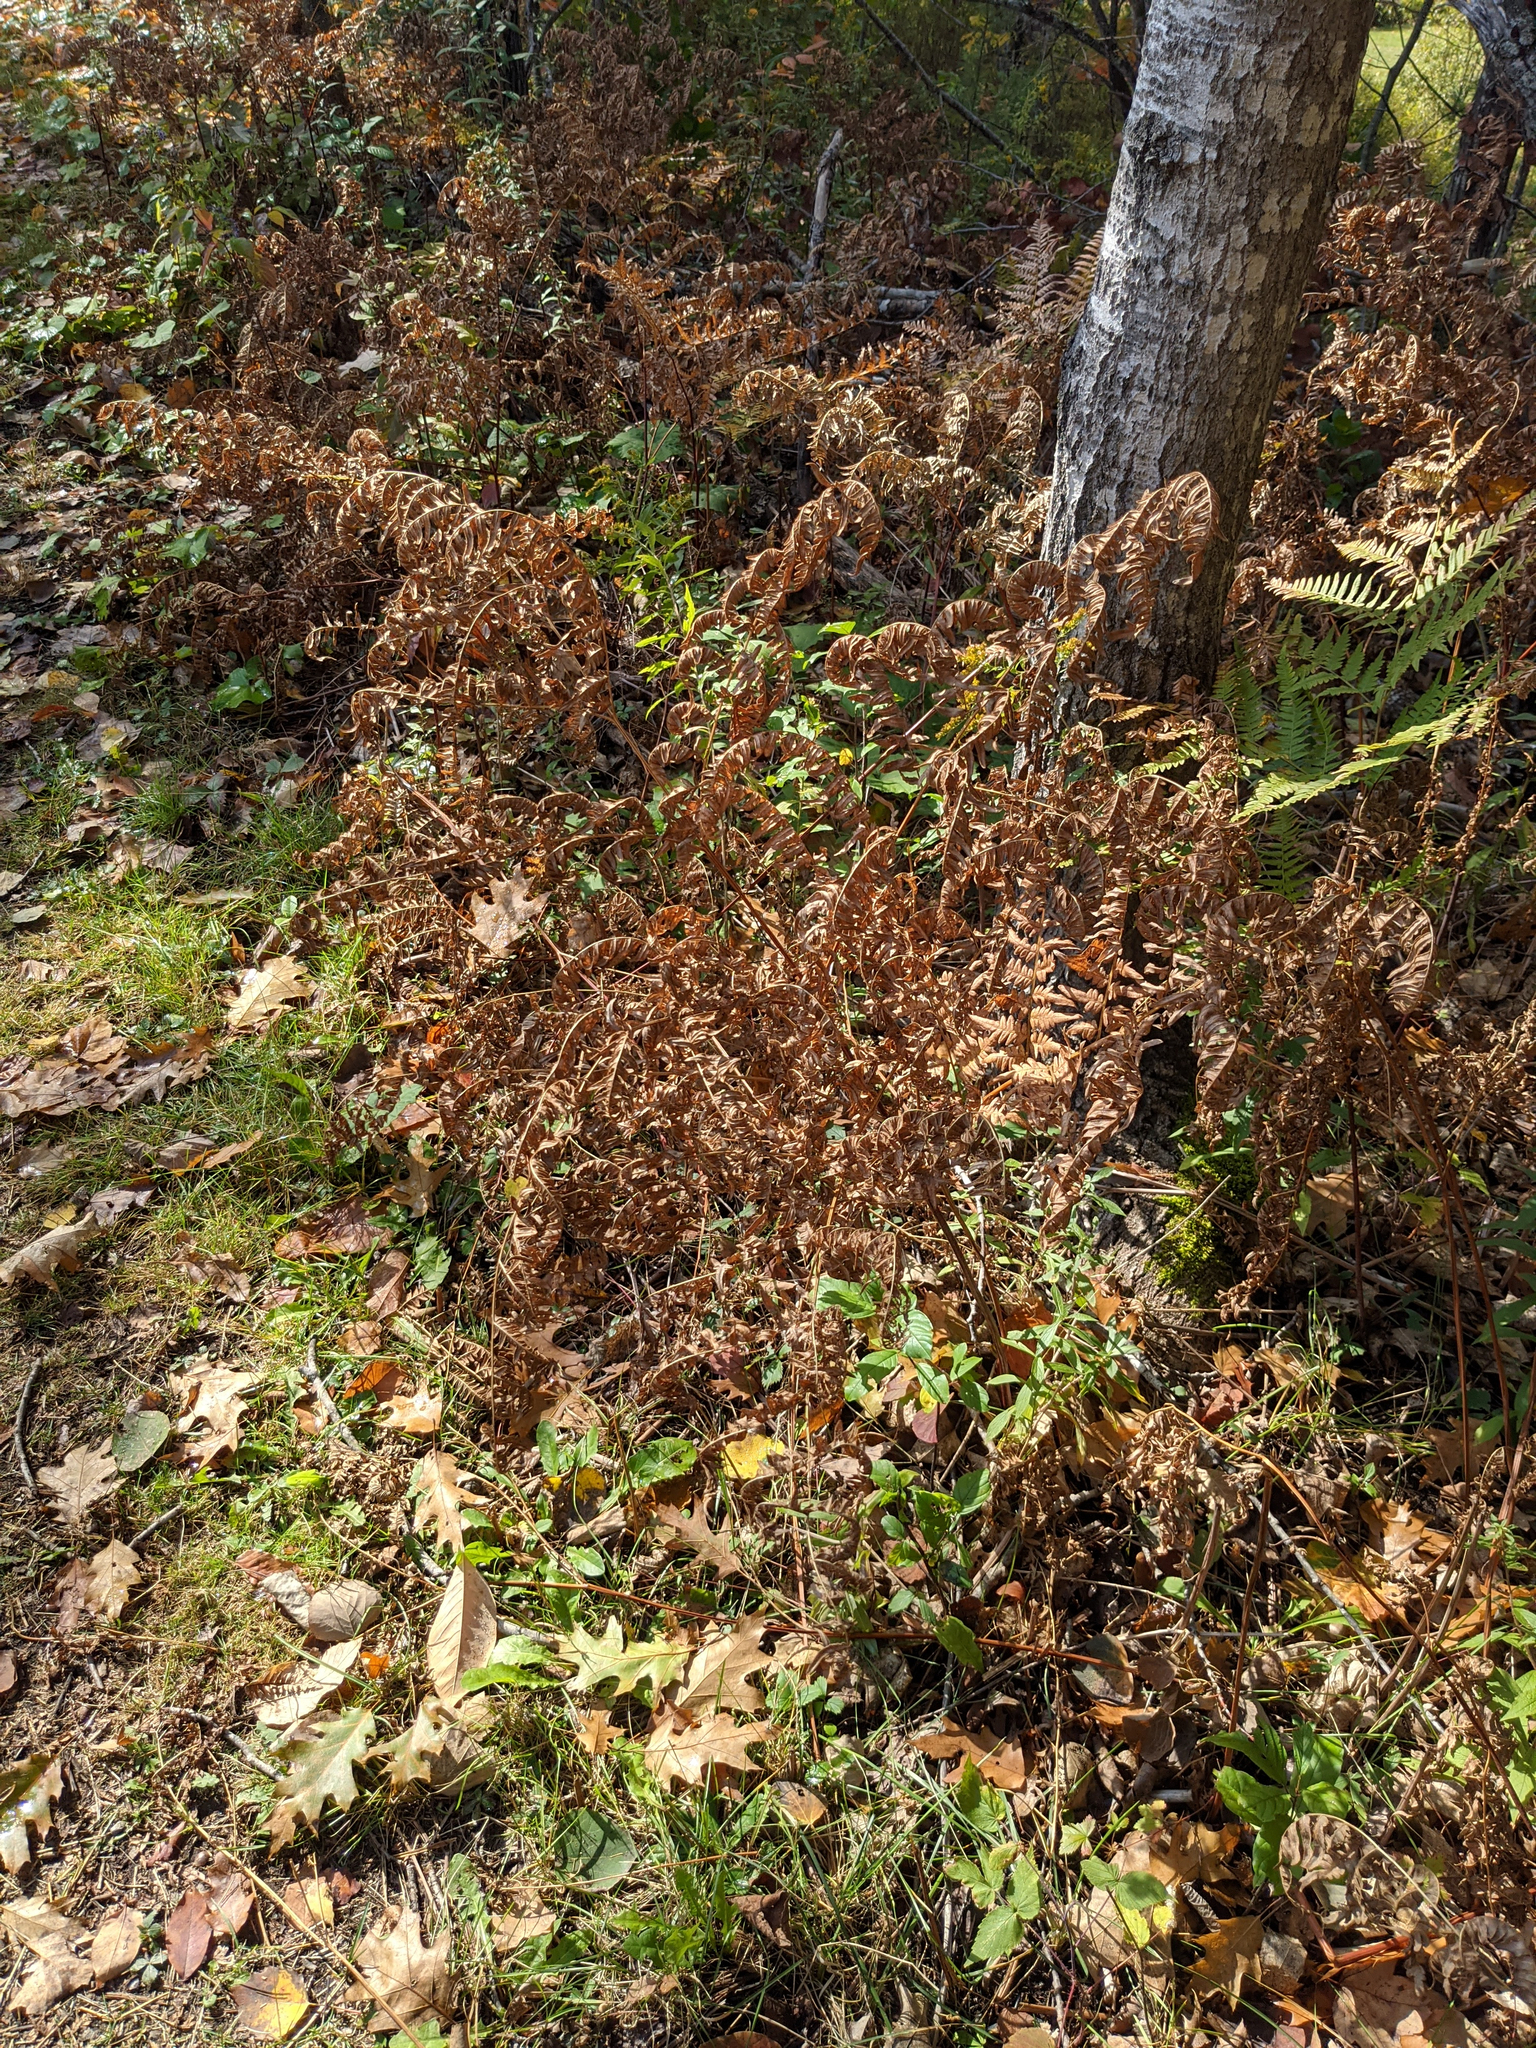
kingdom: Plantae
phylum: Tracheophyta
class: Polypodiopsida
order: Polypodiales
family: Dennstaedtiaceae
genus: Pteridium
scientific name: Pteridium aquilinum
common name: Bracken
